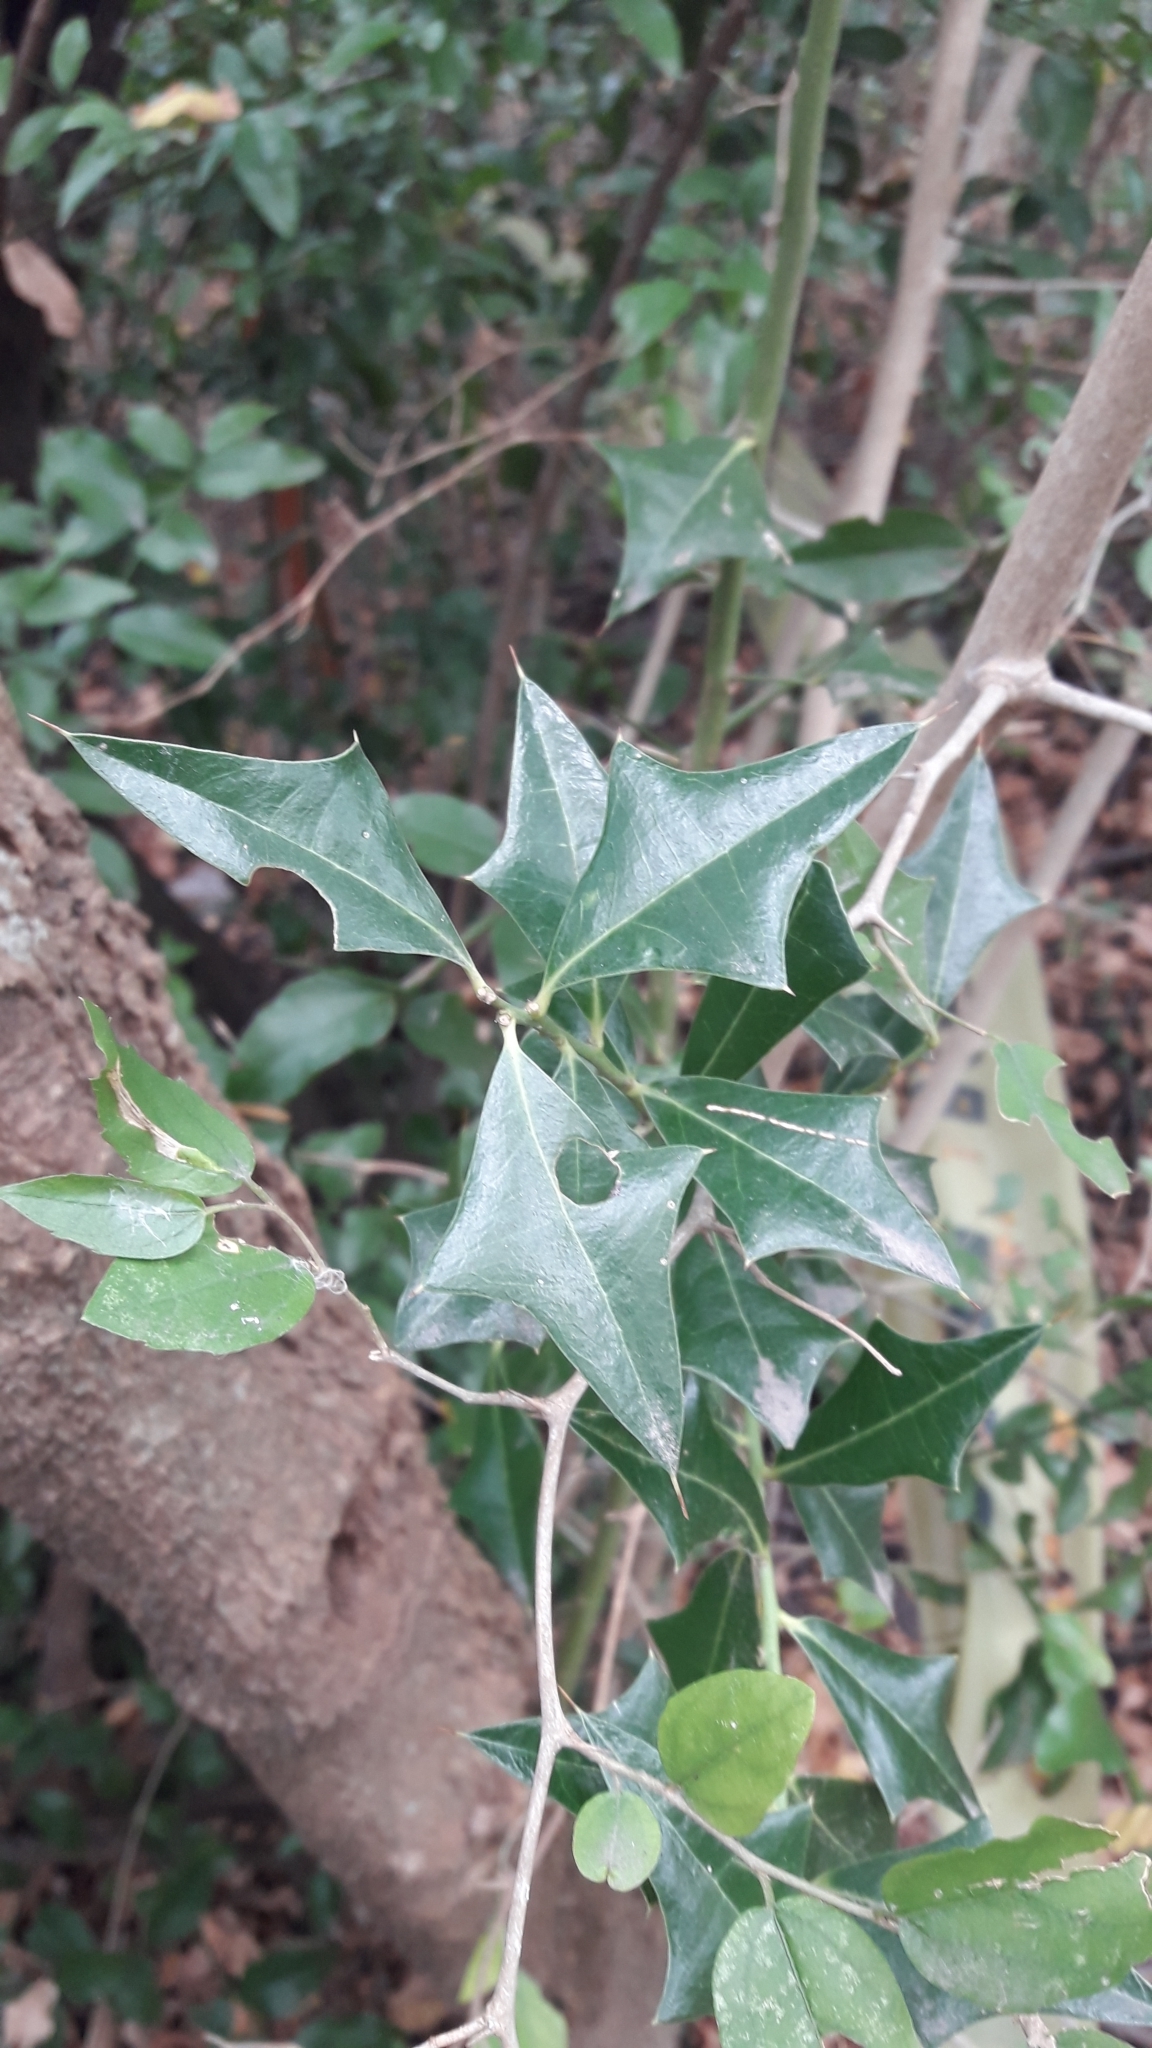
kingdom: Plantae
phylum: Tracheophyta
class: Magnoliopsida
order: Santalales
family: Cervantesiaceae
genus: Jodina
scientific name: Jodina rhombifolia
